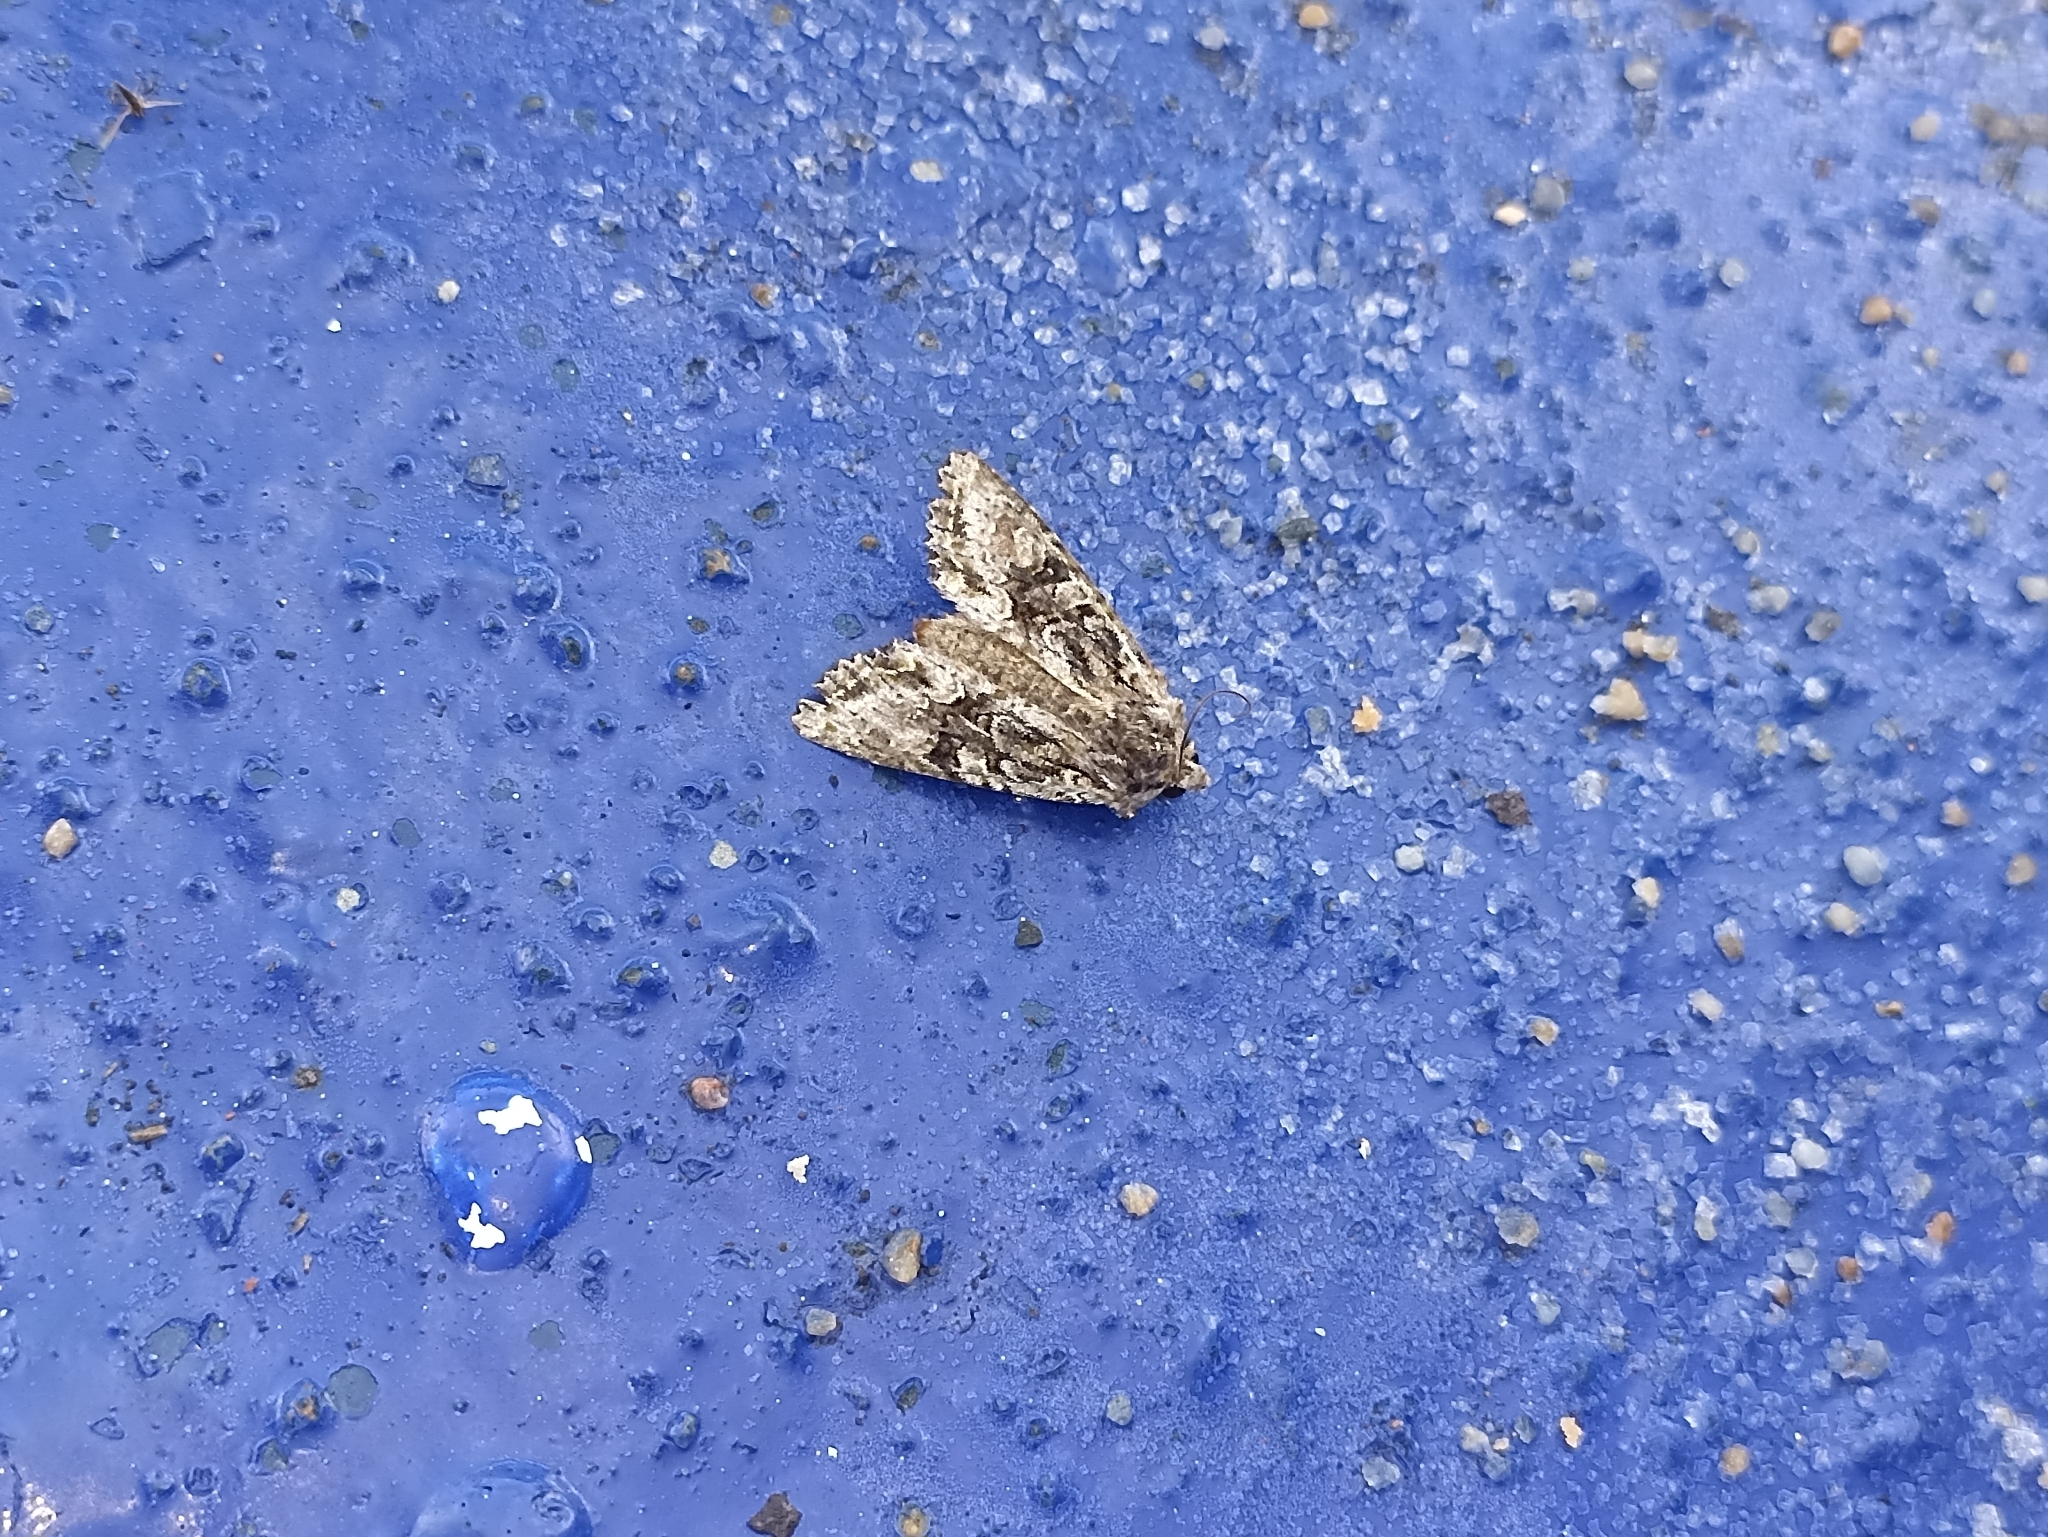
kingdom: Animalia
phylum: Arthropoda
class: Insecta
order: Lepidoptera
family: Noctuidae
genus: Ichneutica
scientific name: Ichneutica mutans
